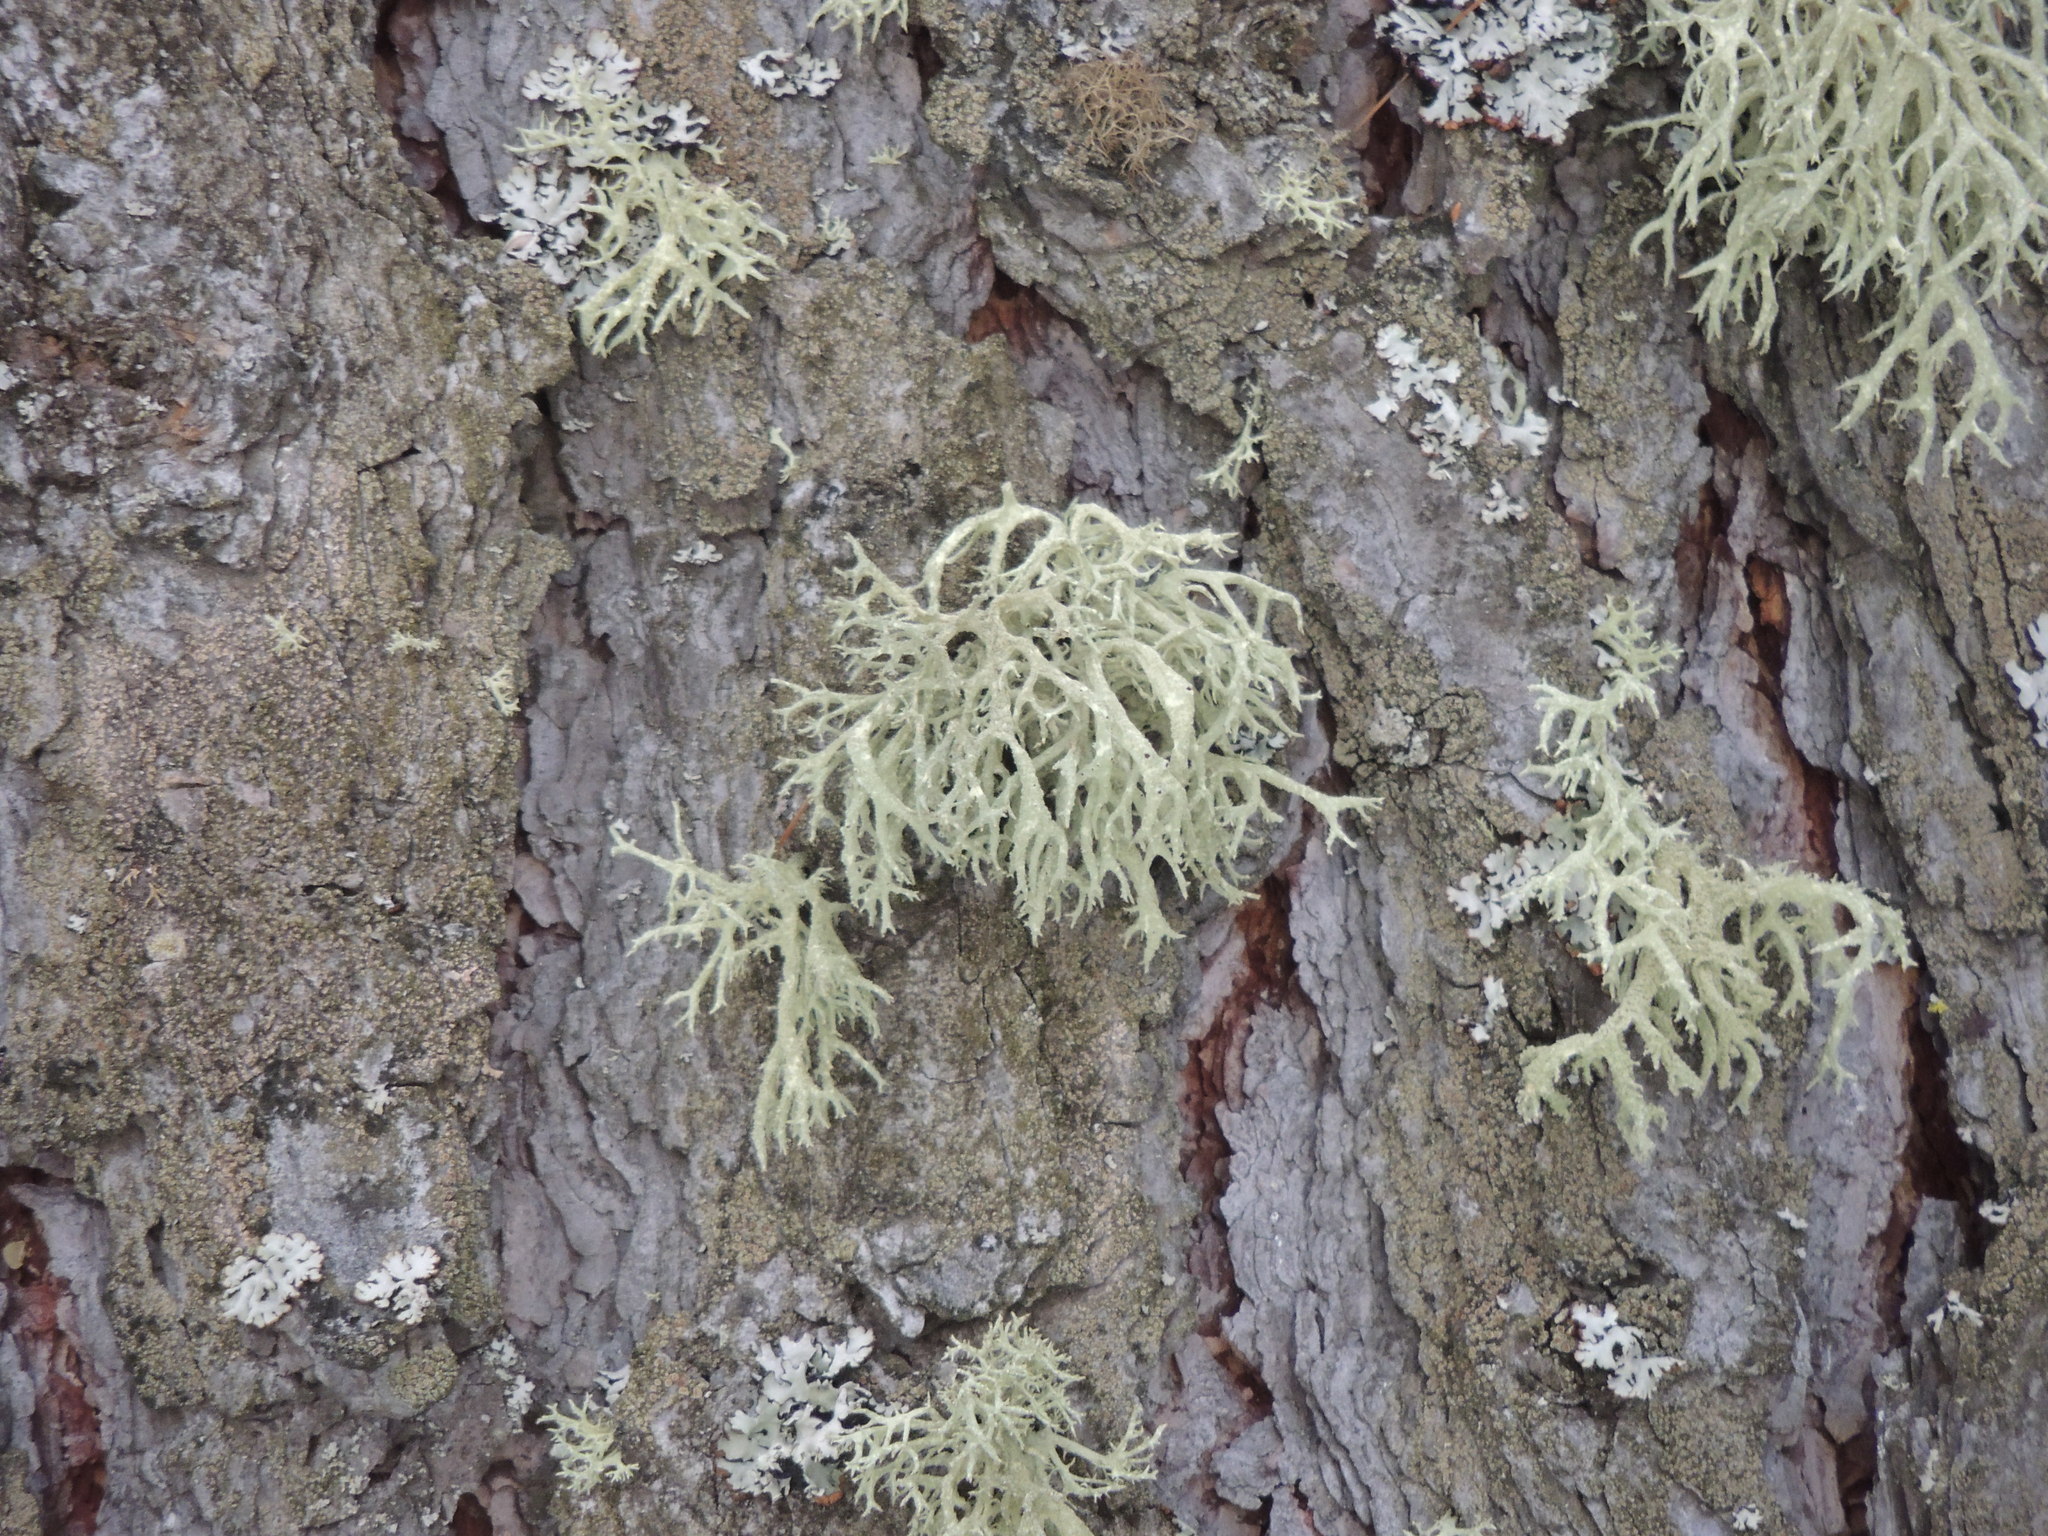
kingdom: Fungi
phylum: Ascomycota
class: Lecanoromycetes
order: Lecanorales
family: Parmeliaceae
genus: Evernia
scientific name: Evernia mesomorpha
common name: Boreal oak moss lichen
